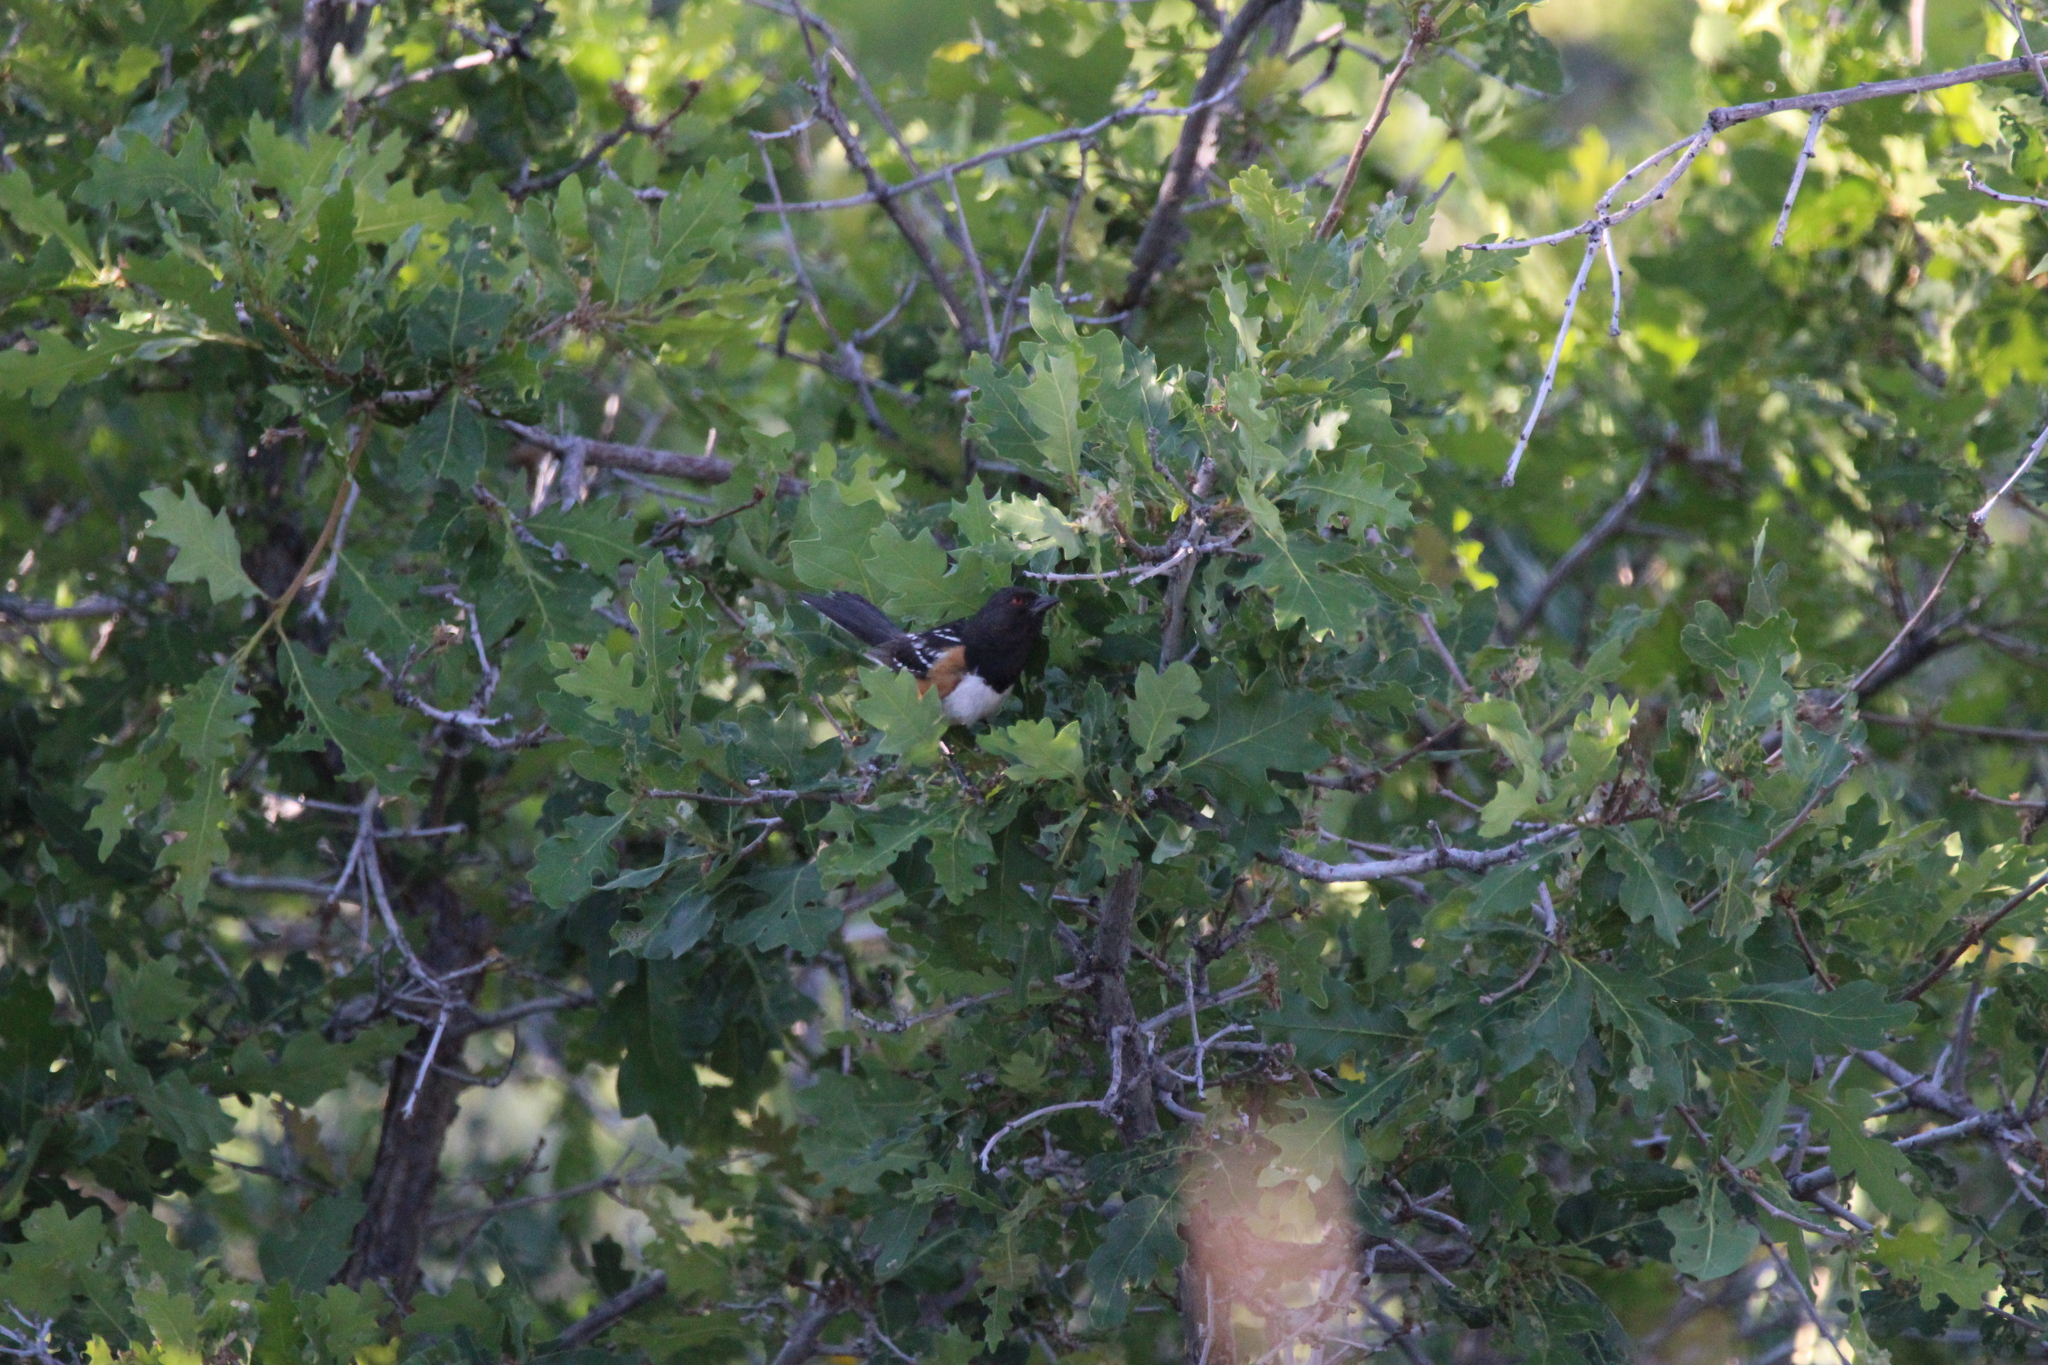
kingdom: Animalia
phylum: Chordata
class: Aves
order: Passeriformes
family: Passerellidae
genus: Pipilo
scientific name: Pipilo maculatus
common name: Spotted towhee
